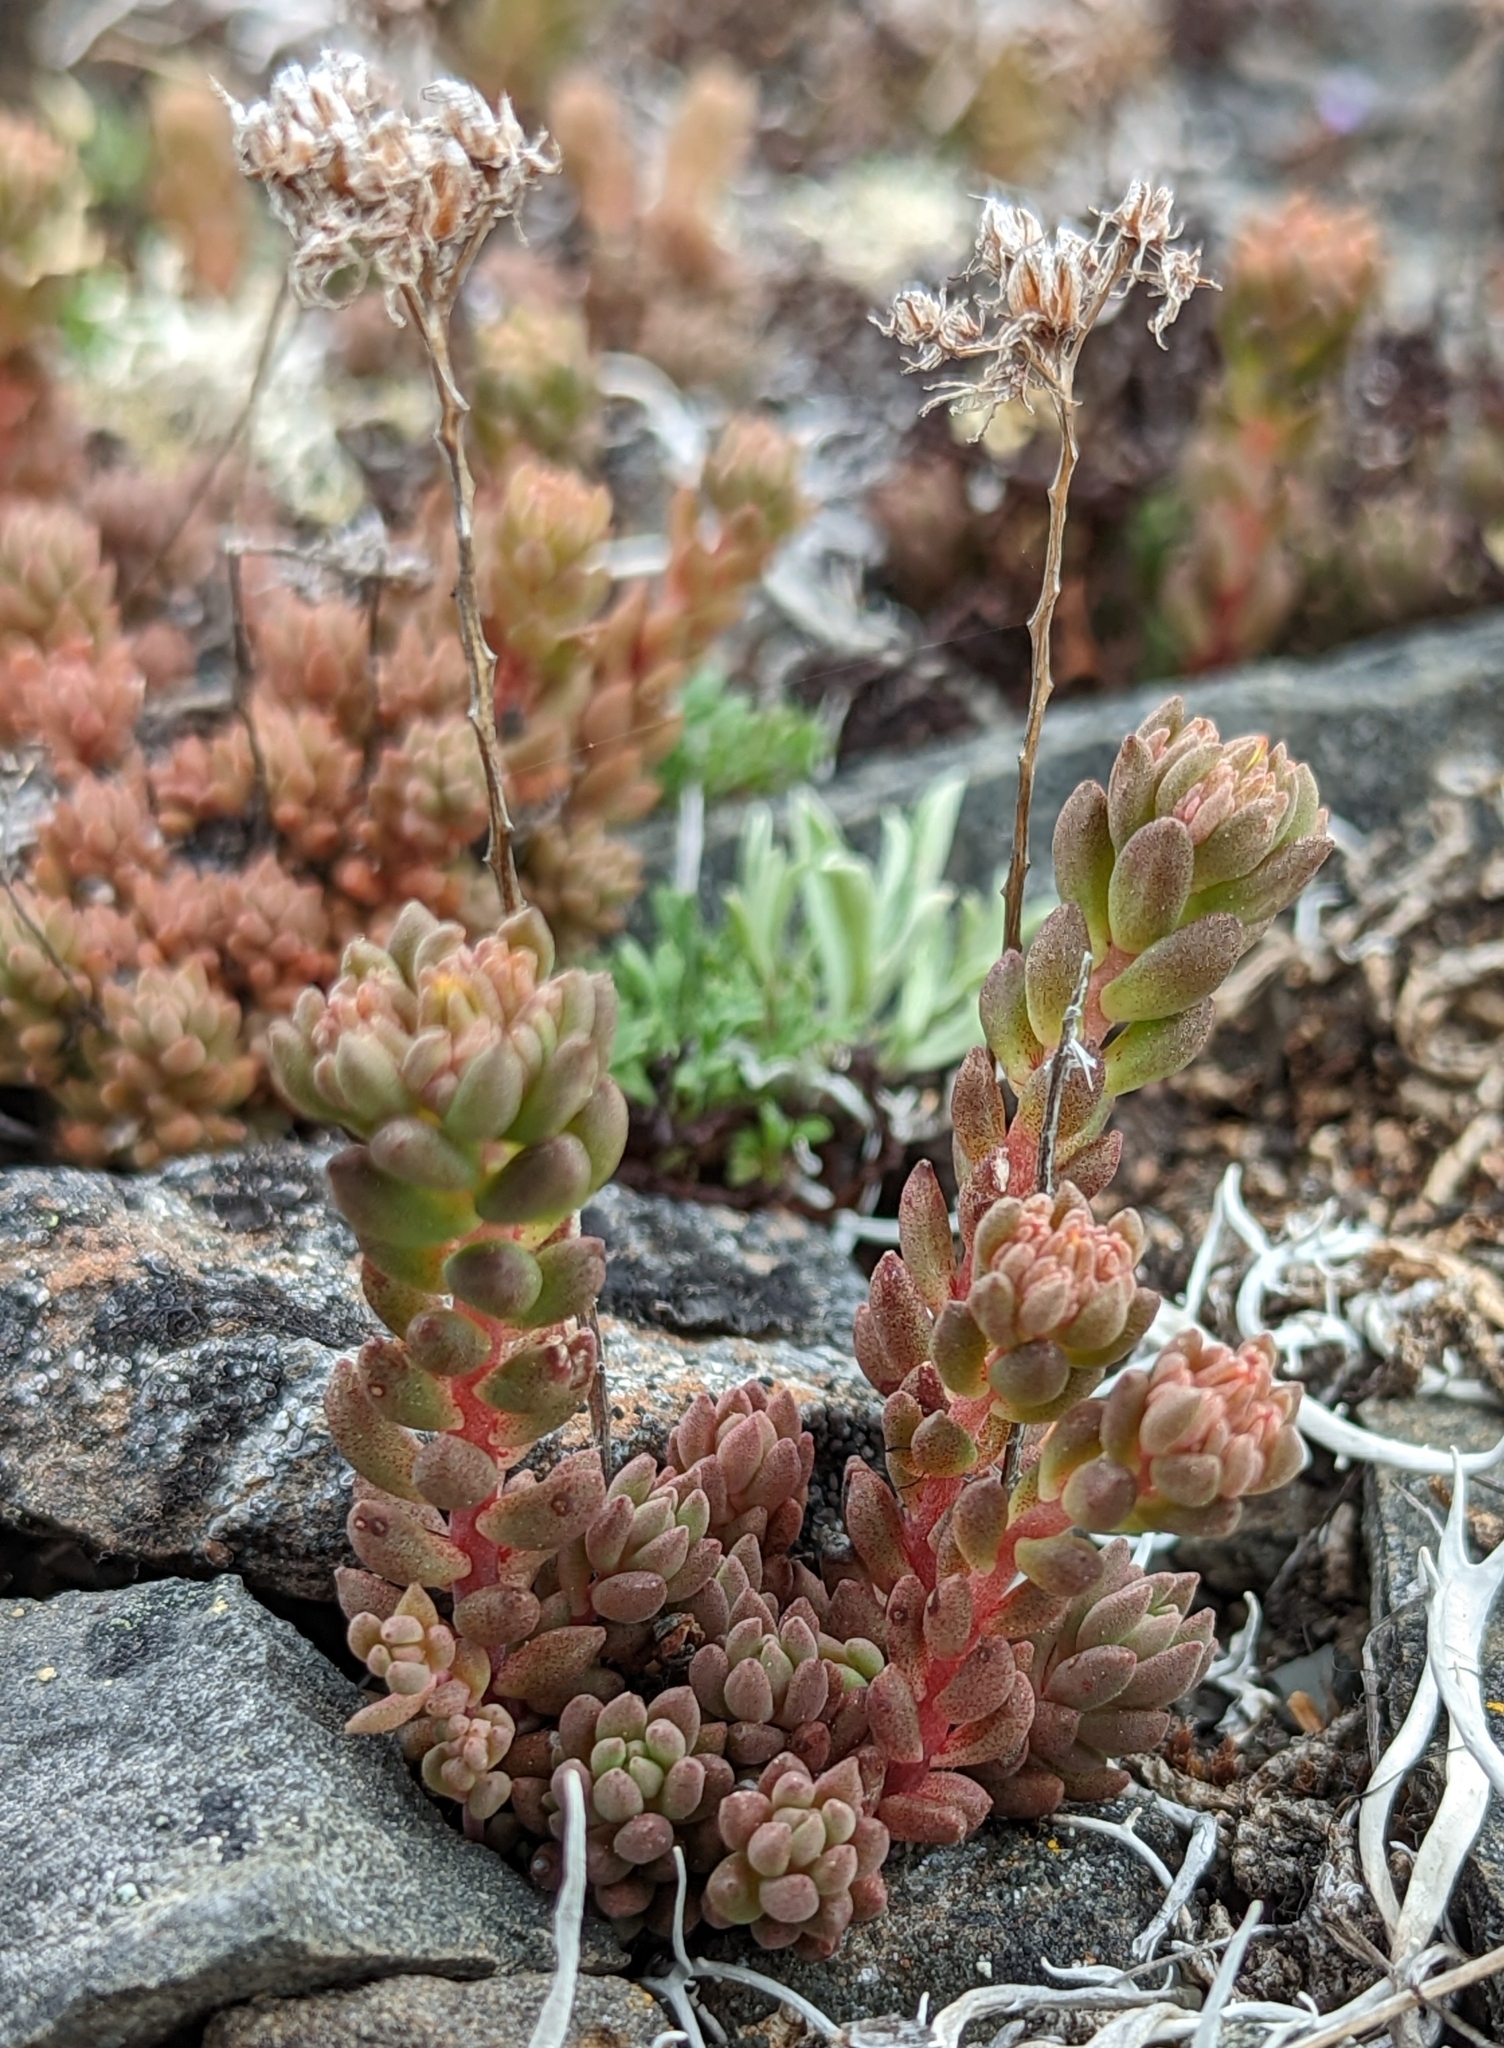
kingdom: Plantae
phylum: Tracheophyta
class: Magnoliopsida
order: Saxifragales
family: Crassulaceae
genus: Sedum
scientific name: Sedum lanceolatum
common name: Common stonecrop
